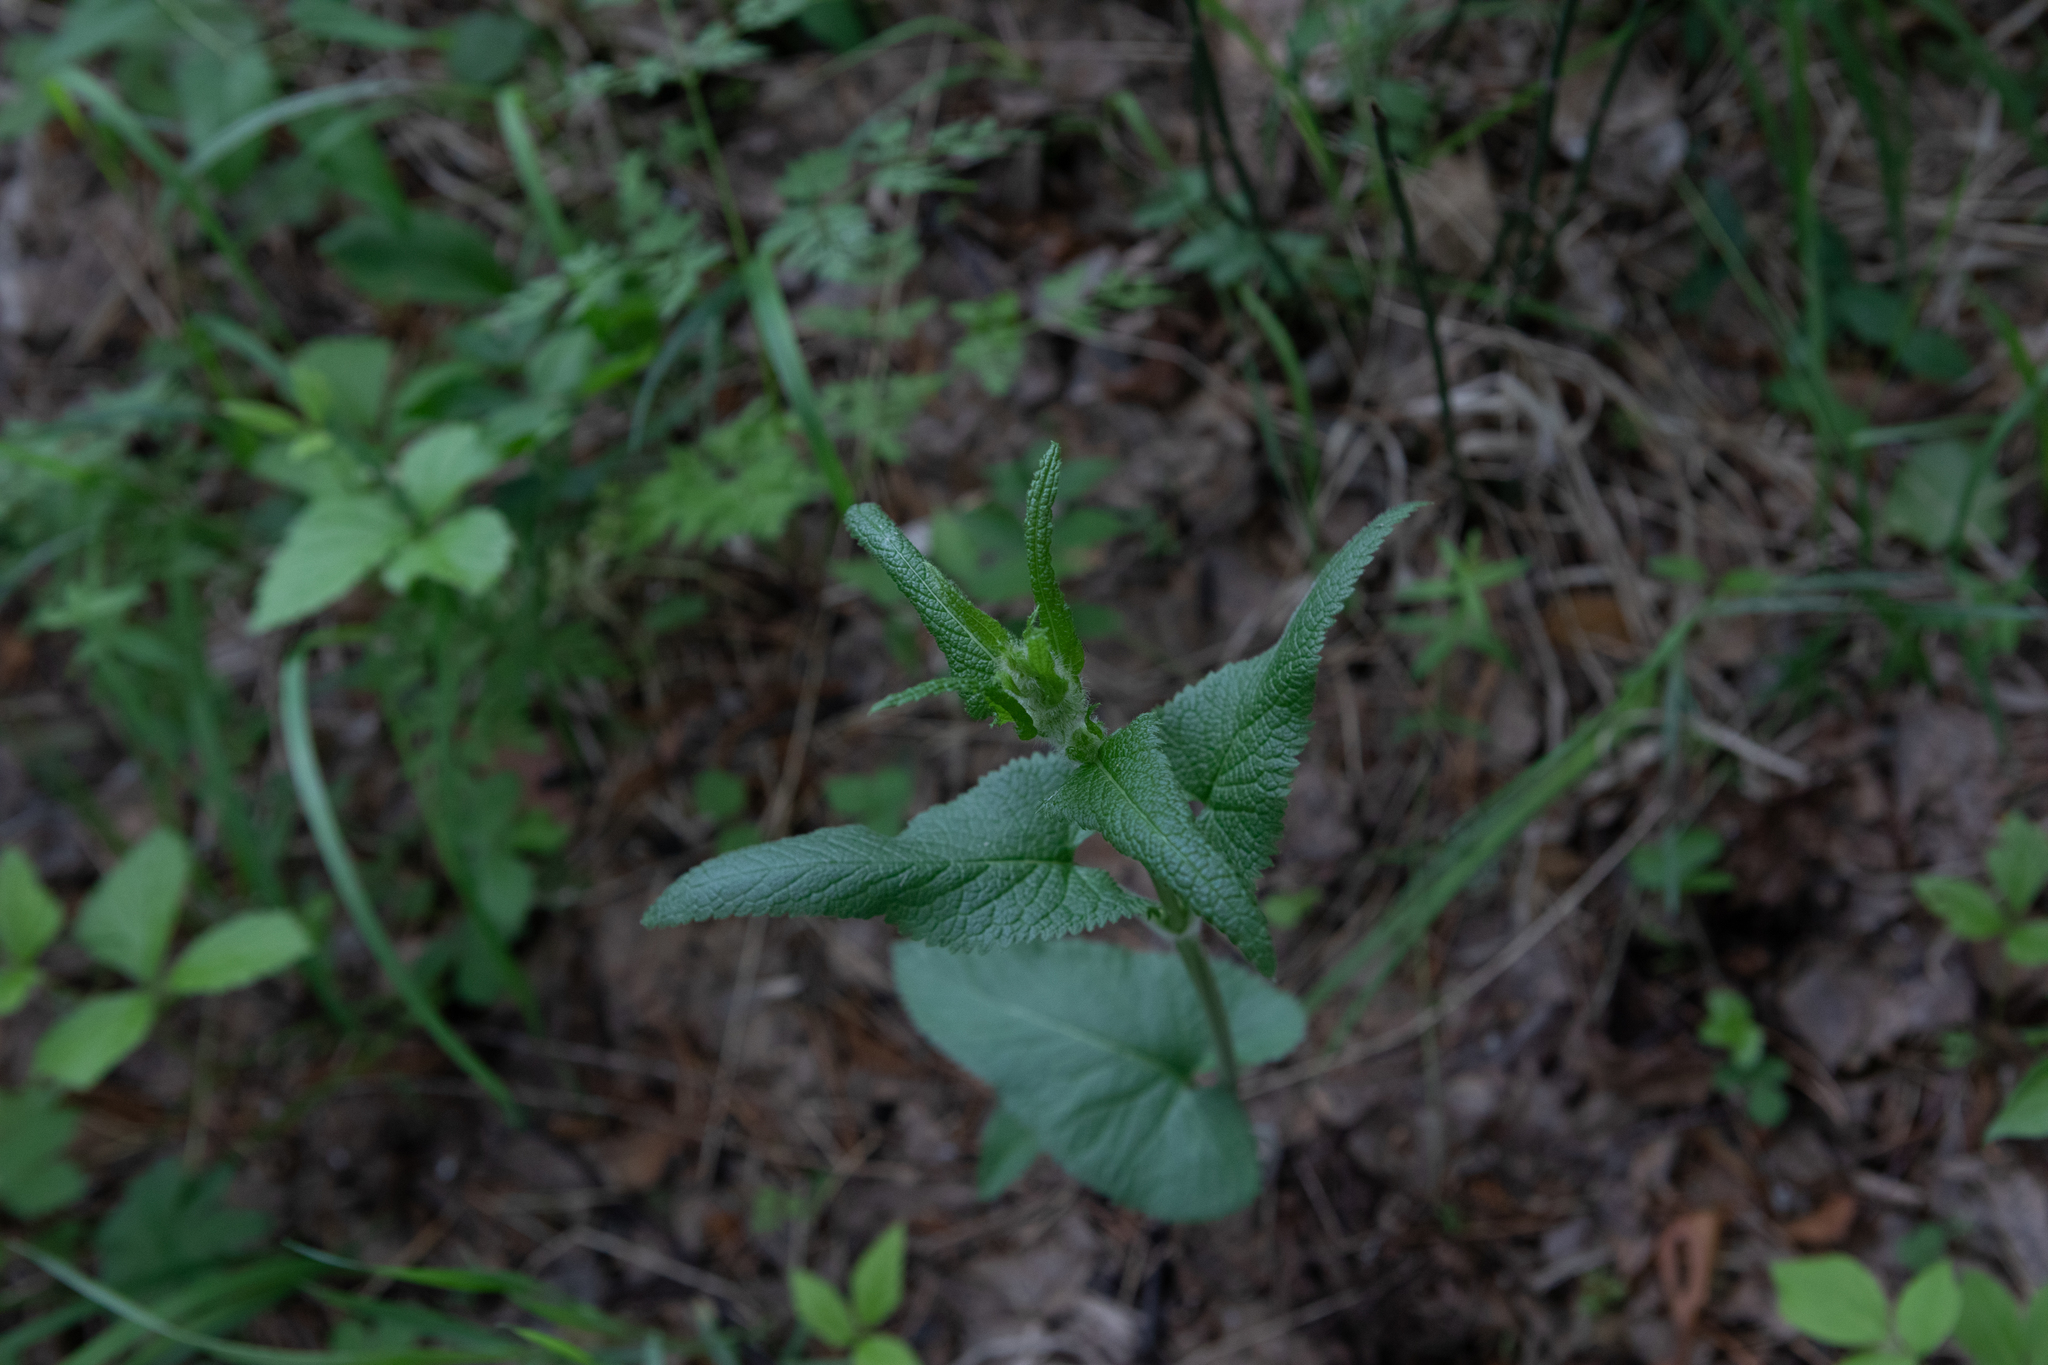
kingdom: Plantae
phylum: Tracheophyta
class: Magnoliopsida
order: Lamiales
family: Lamiaceae
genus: Phlomoides
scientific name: Phlomoides tuberosa
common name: Tuberous jerusalem sage
